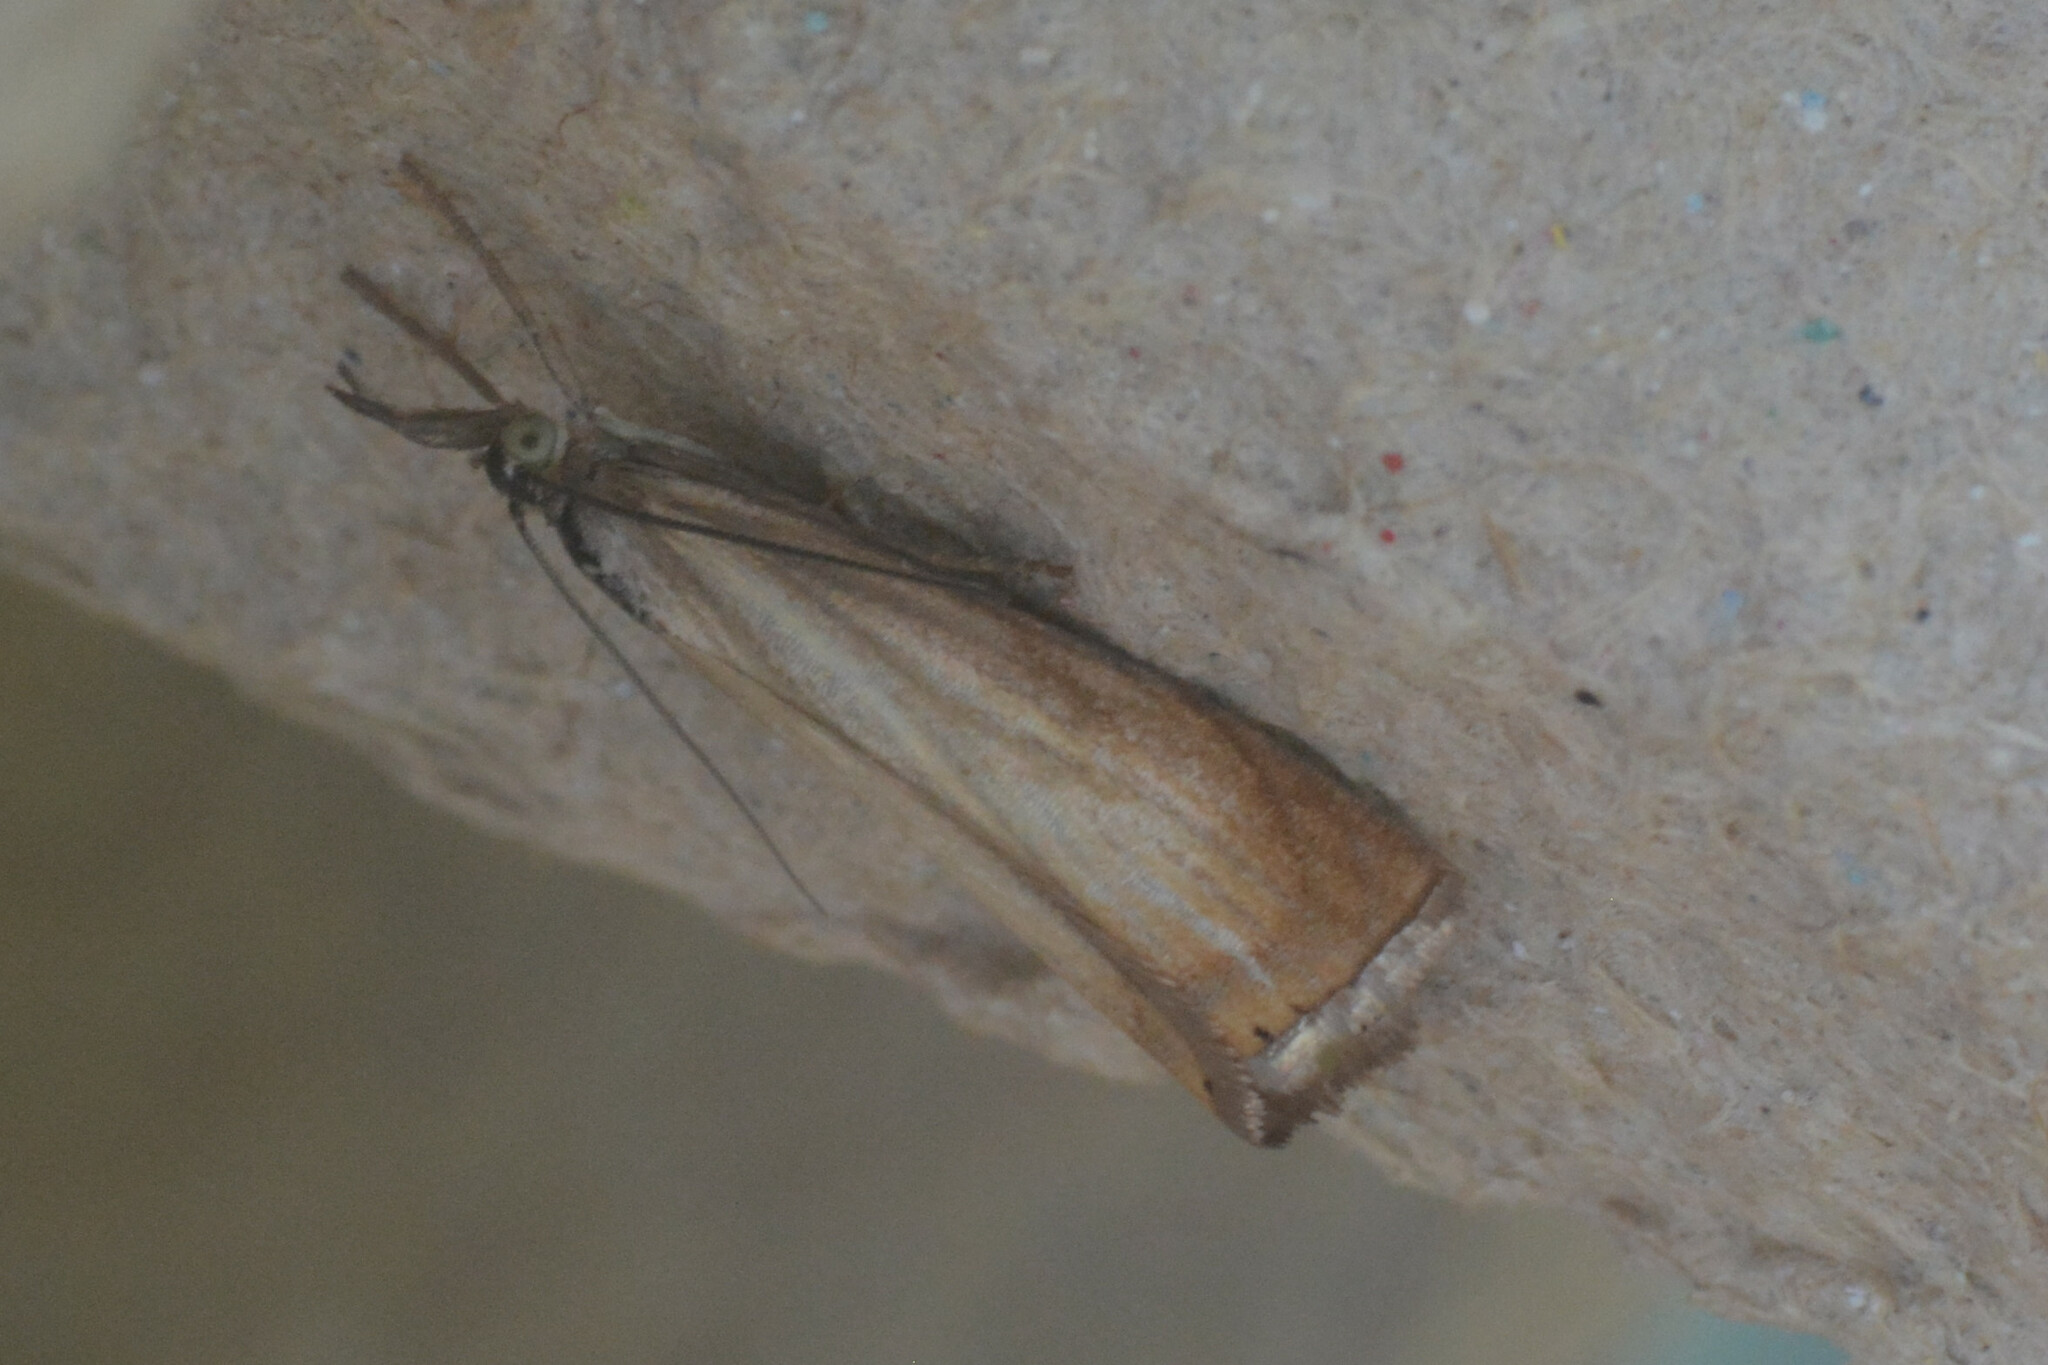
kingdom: Animalia
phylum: Arthropoda
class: Insecta
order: Lepidoptera
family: Crambidae
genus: Chrysoteuchia
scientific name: Chrysoteuchia culmella
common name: Garden grass-veneer
